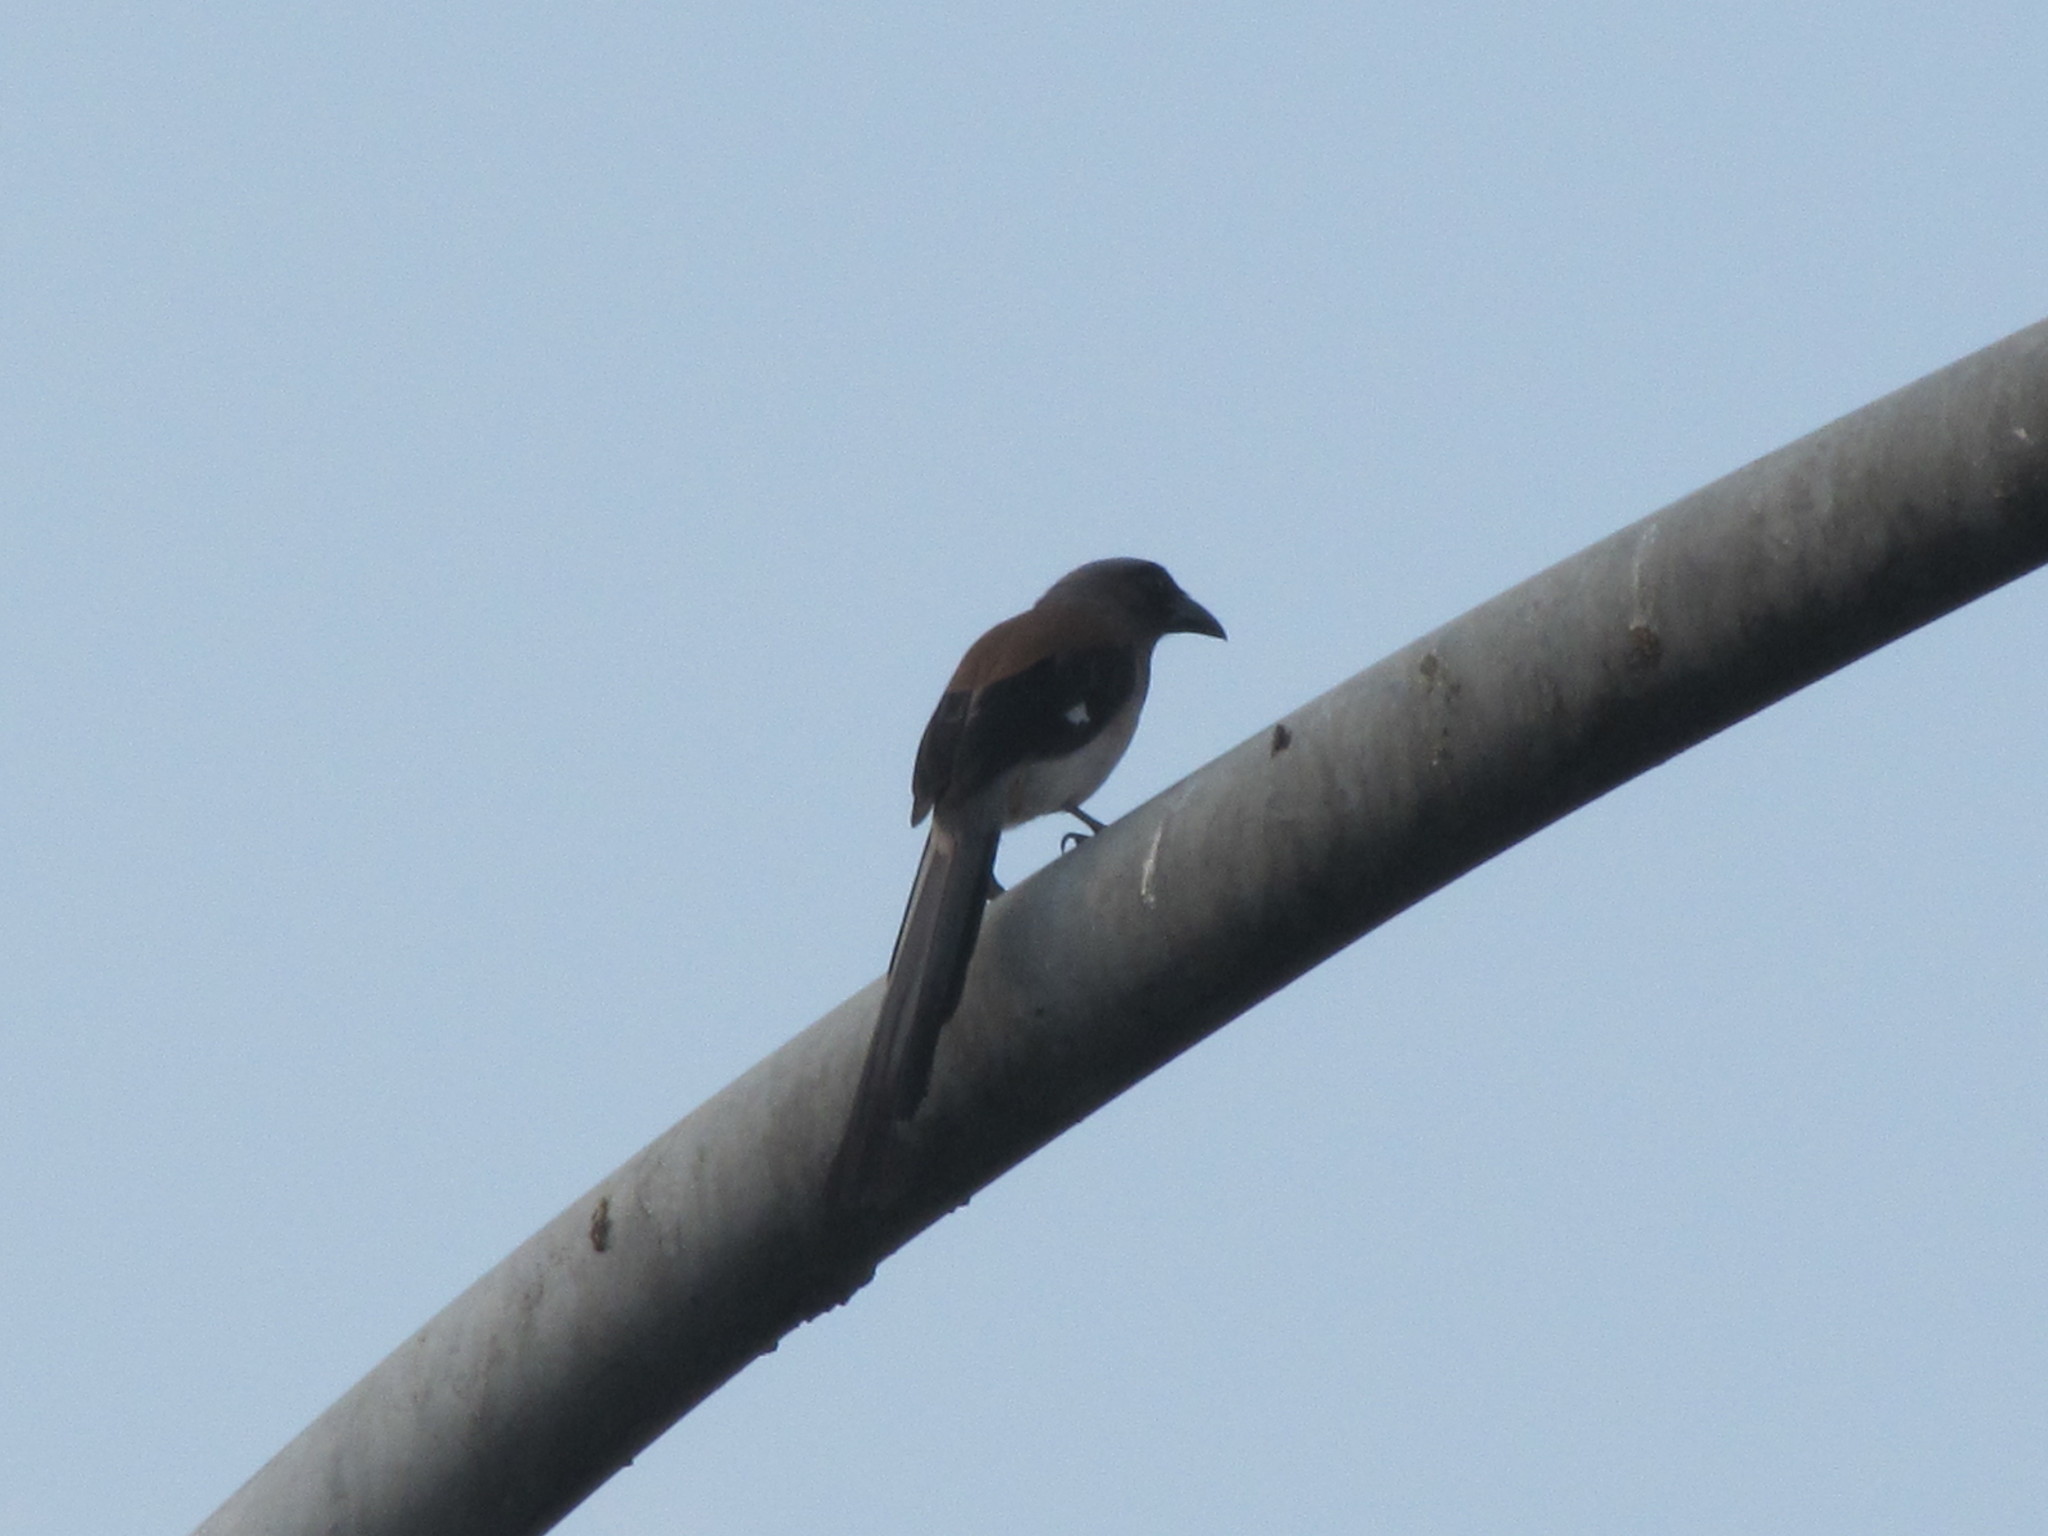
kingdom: Animalia
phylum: Chordata
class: Aves
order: Passeriformes
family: Corvidae
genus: Dendrocitta
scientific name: Dendrocitta formosae
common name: Grey treepie
